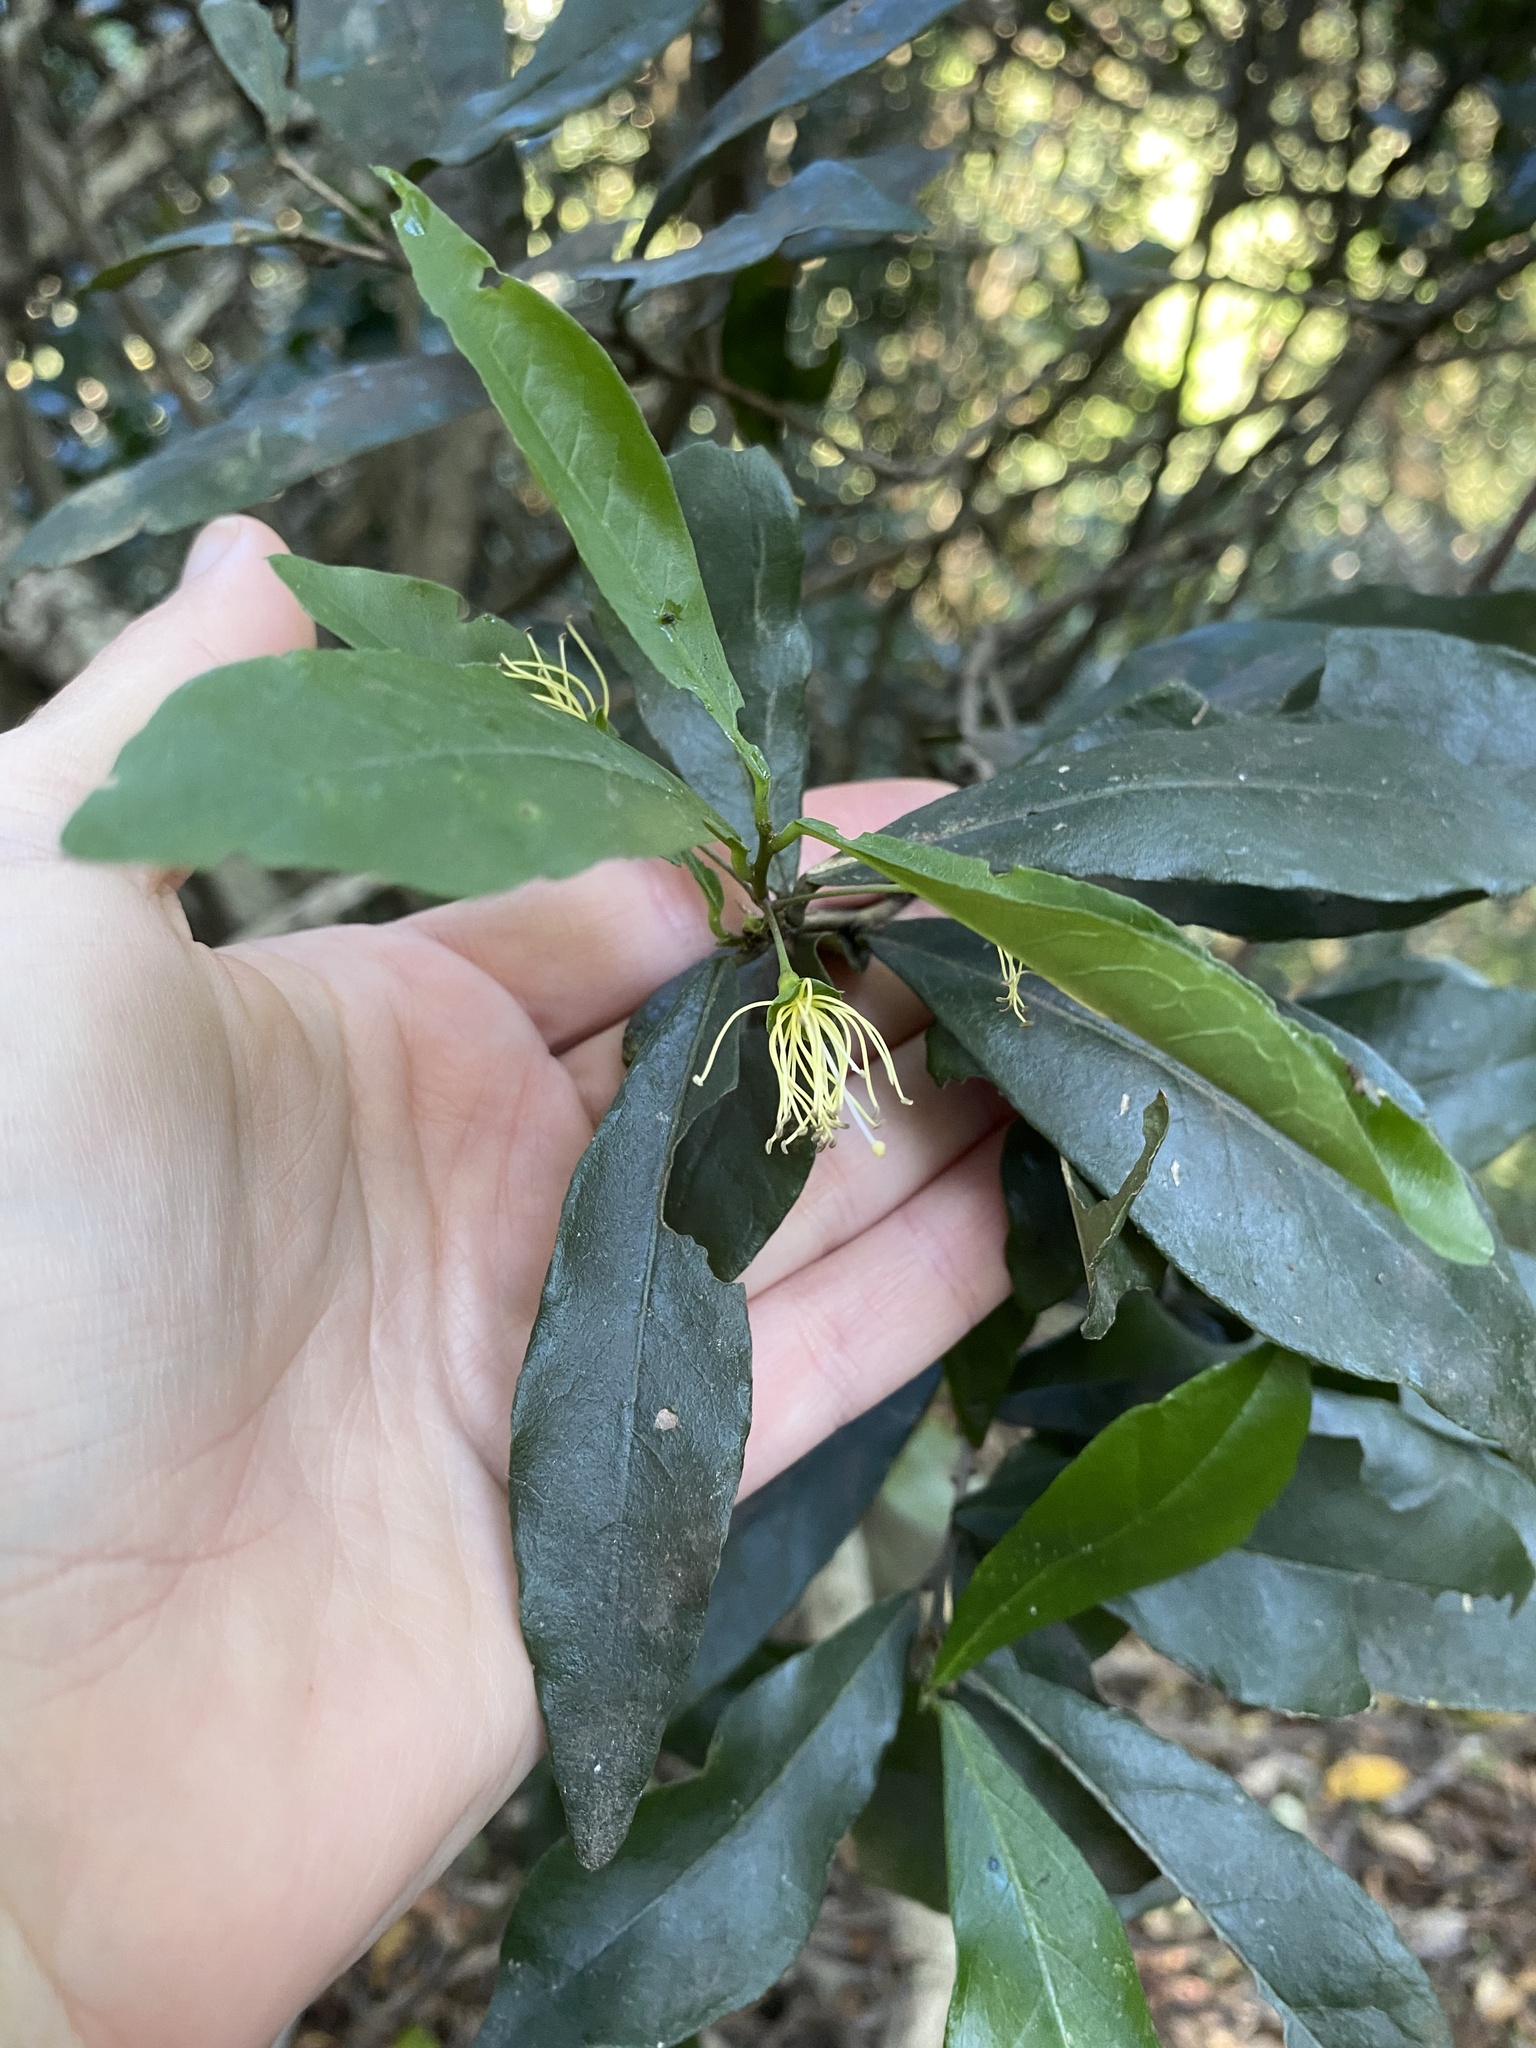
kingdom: Plantae
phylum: Tracheophyta
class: Magnoliopsida
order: Brassicales
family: Capparaceae
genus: Maerua
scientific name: Maerua racemulosa
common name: Forest bush-cherry
